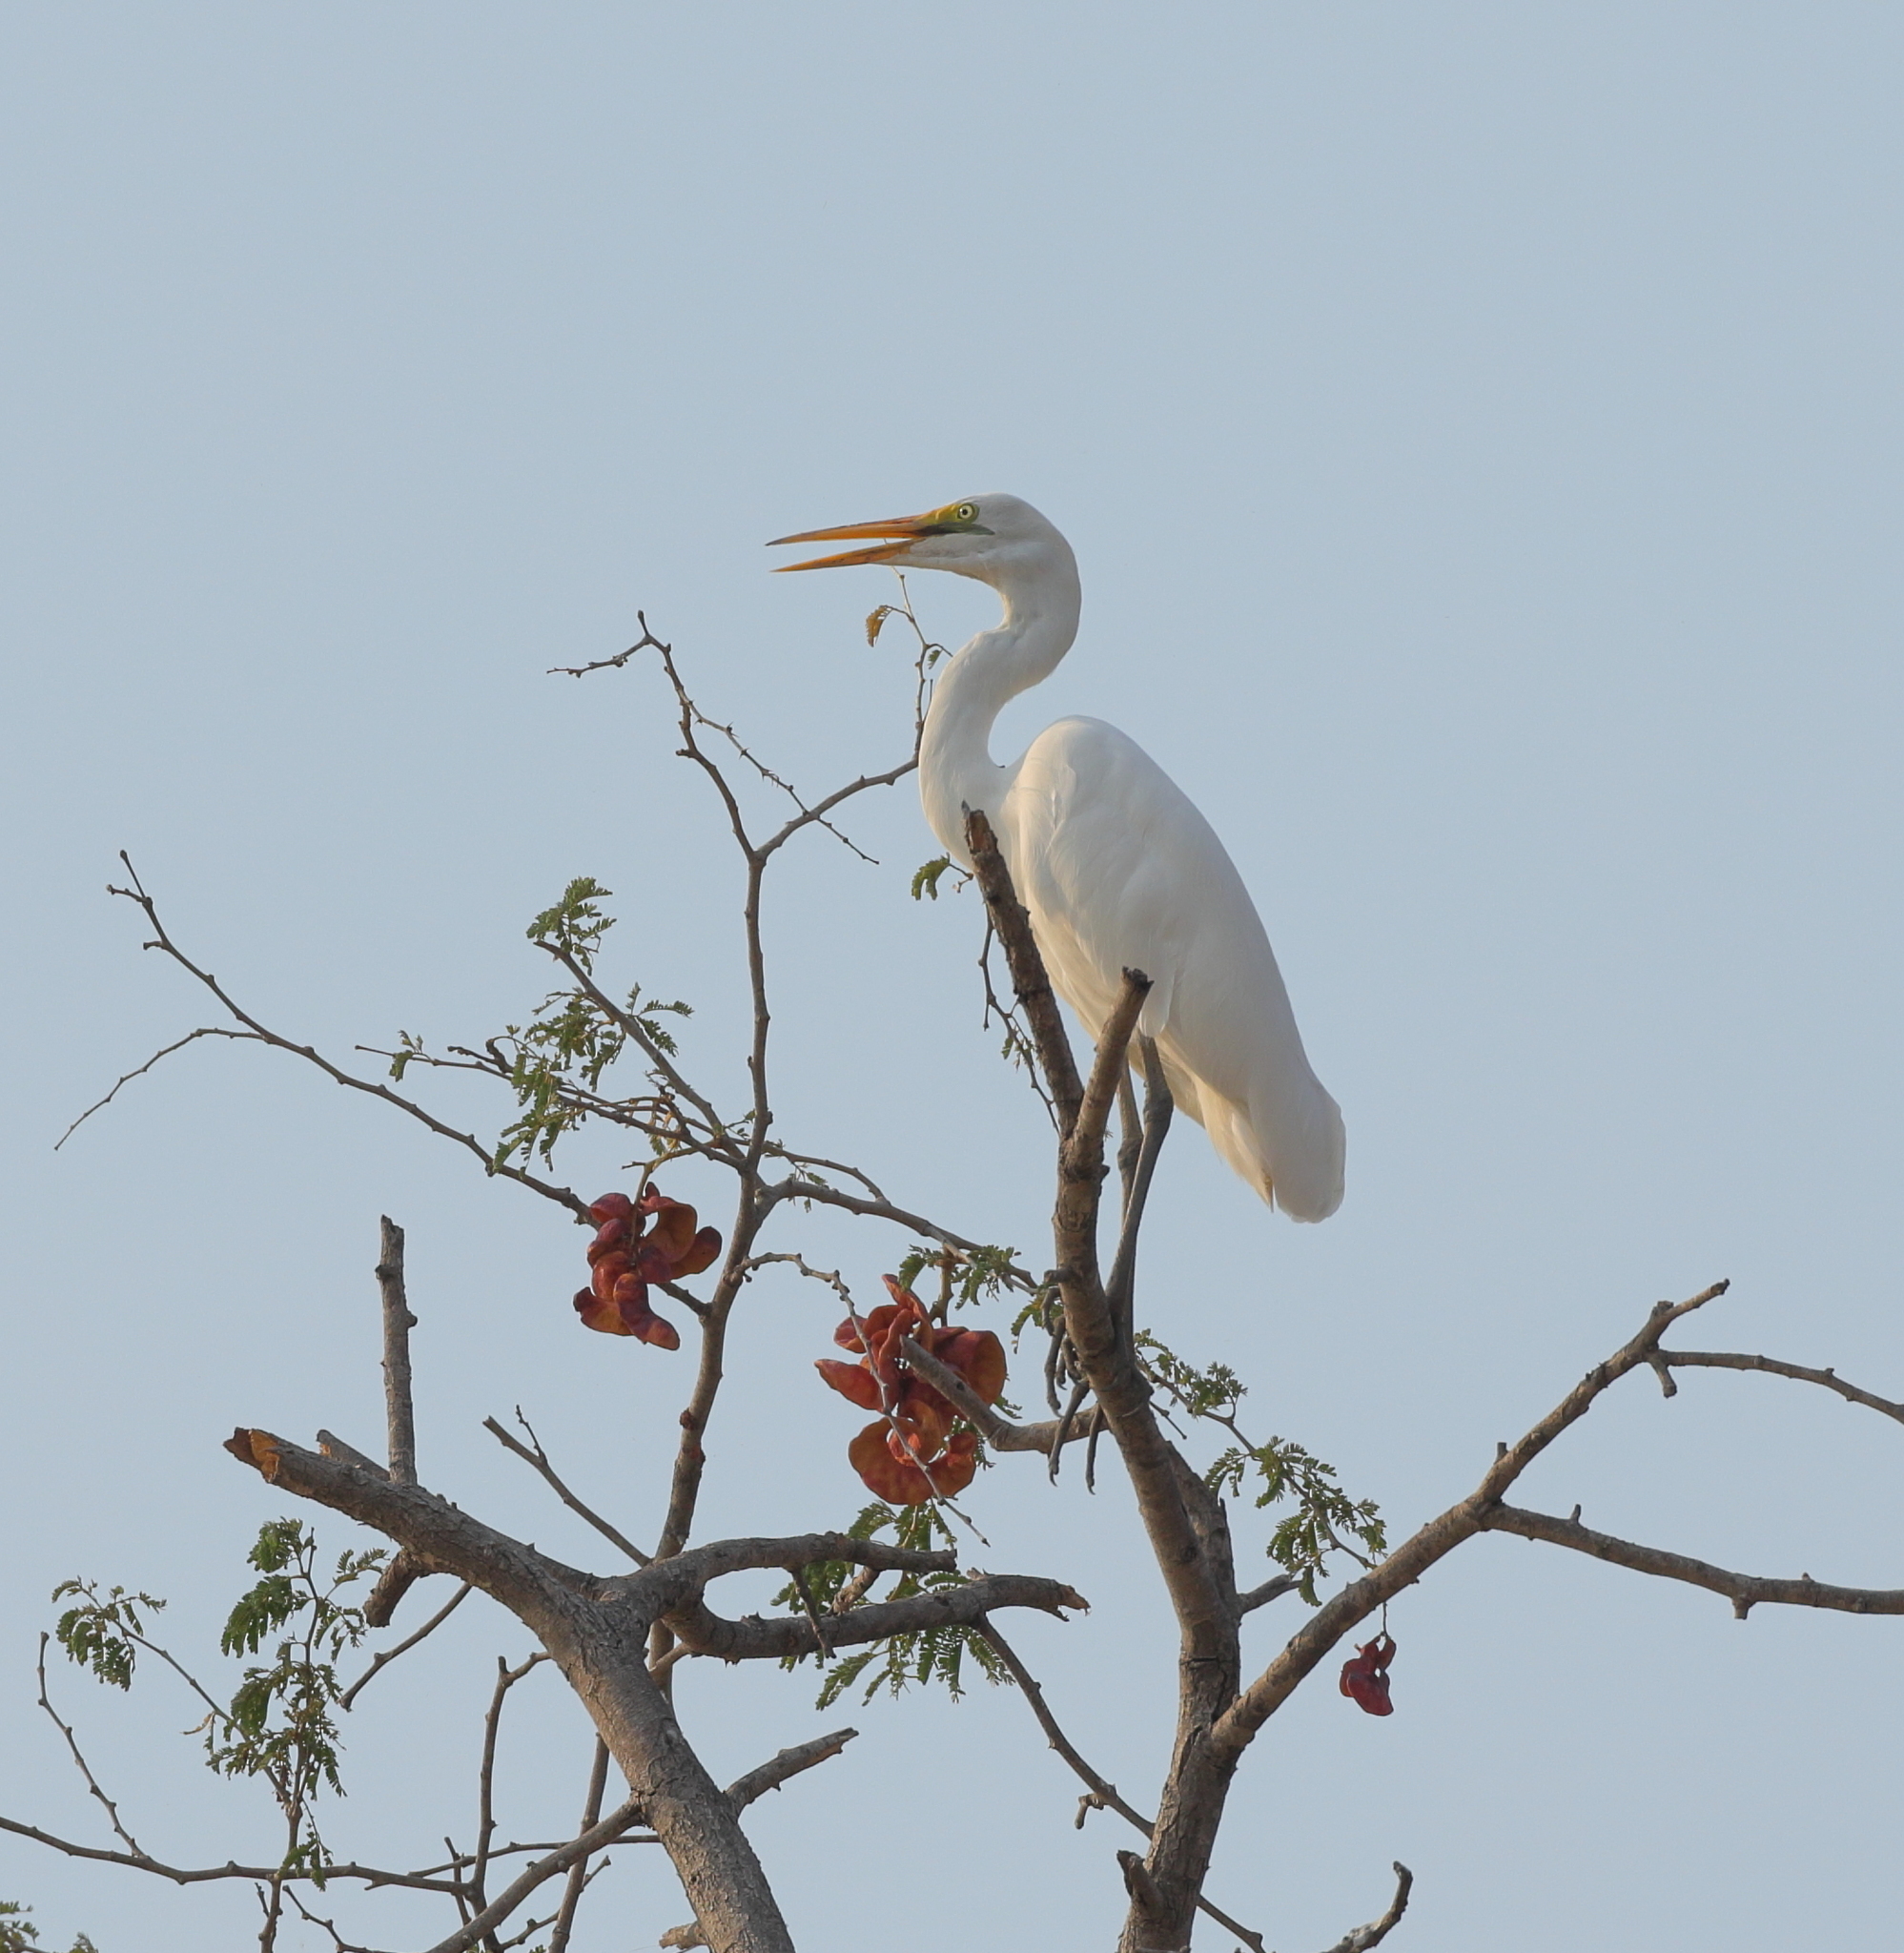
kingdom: Animalia
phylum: Chordata
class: Aves
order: Pelecaniformes
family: Ardeidae
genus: Ardea
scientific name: Ardea alba
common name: Great egret
